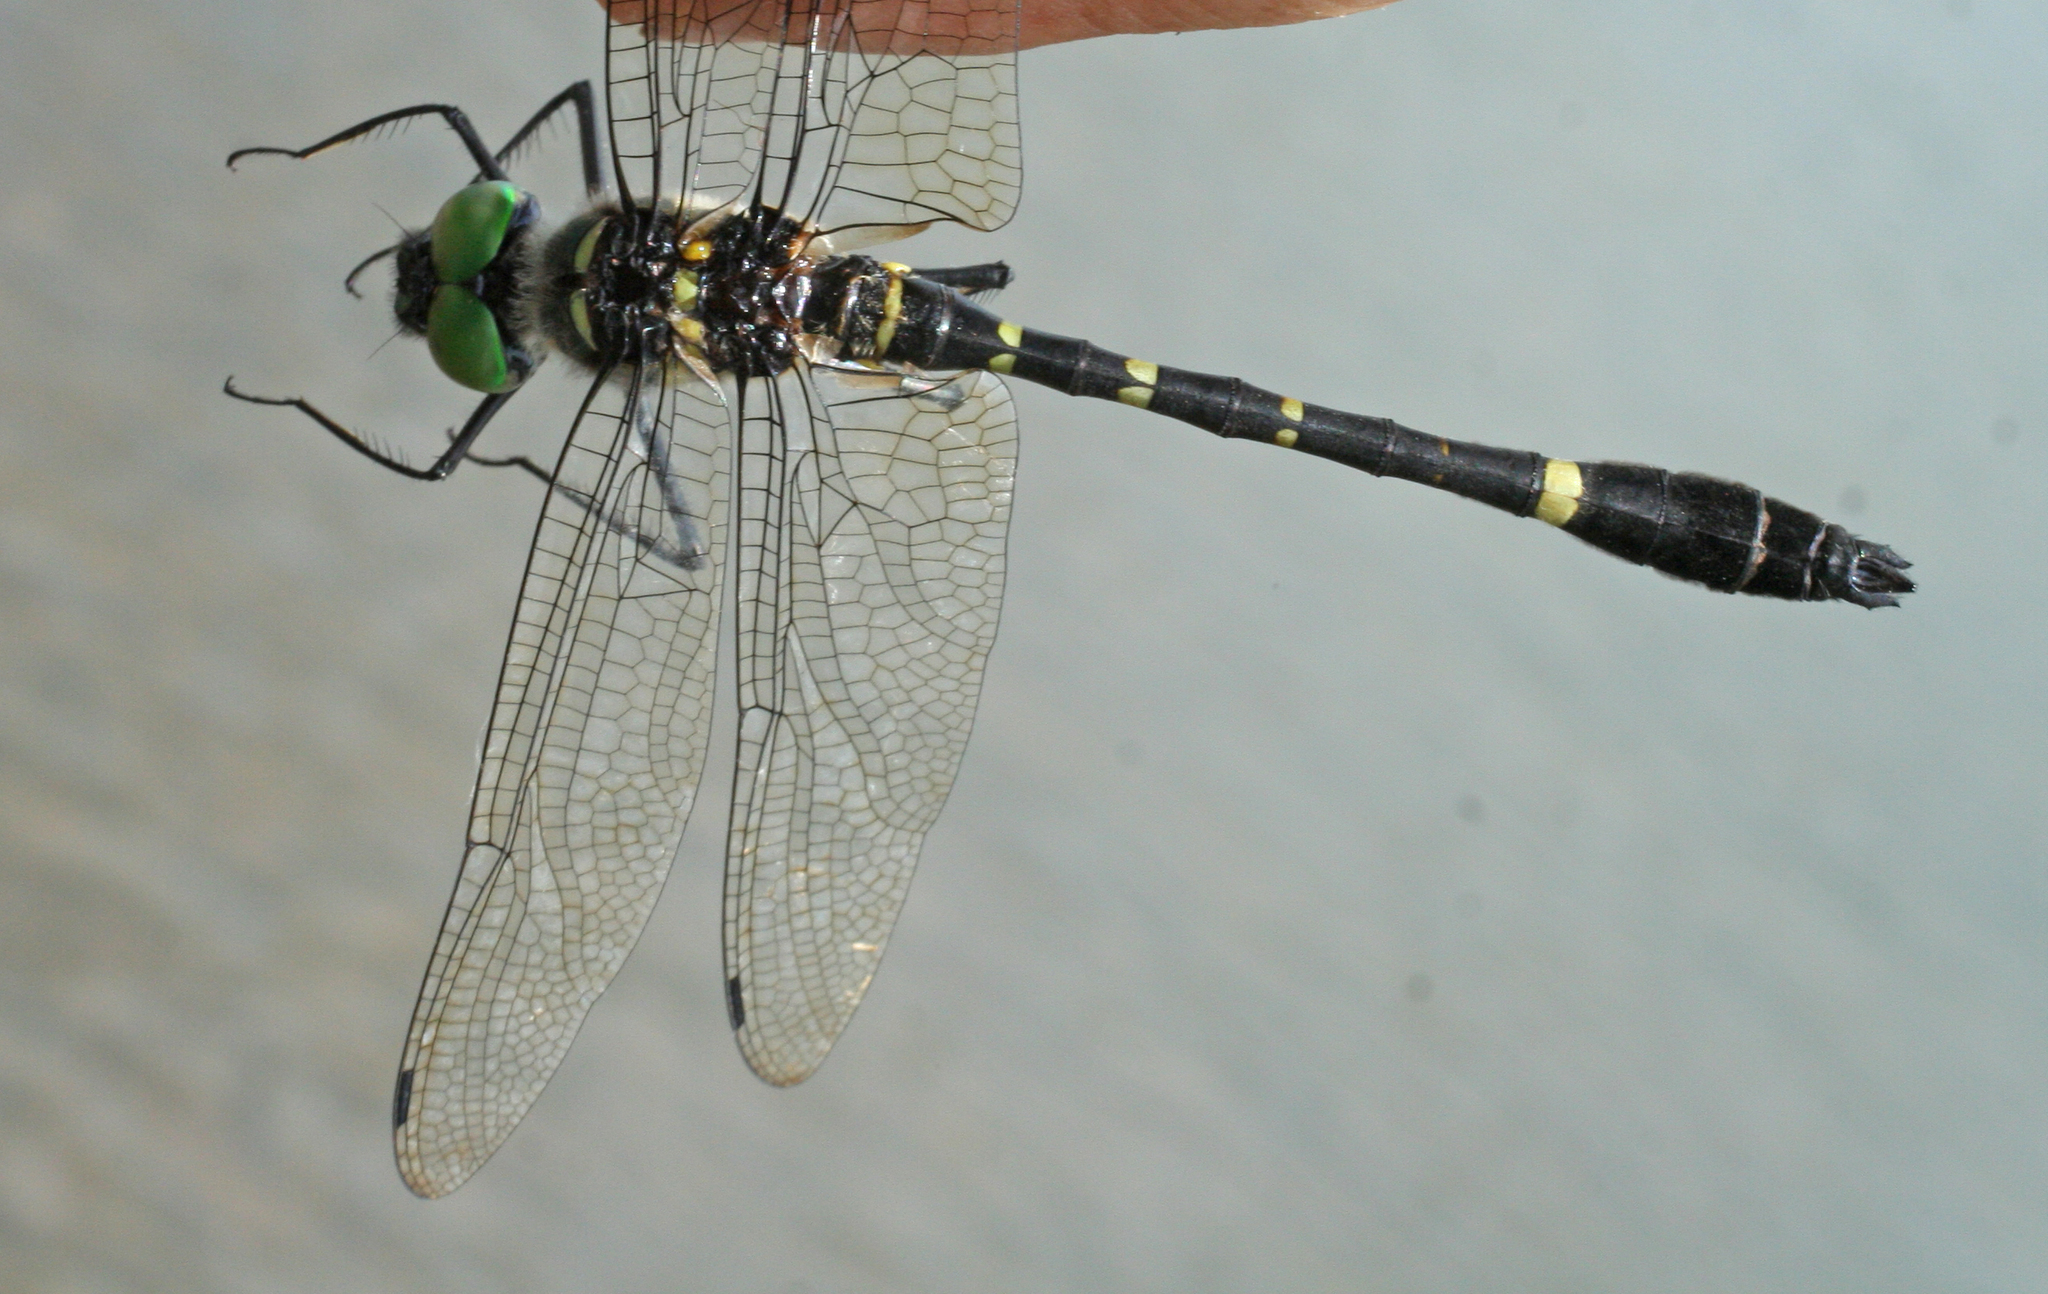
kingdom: Animalia
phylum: Arthropoda
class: Insecta
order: Odonata
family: Macromiidae
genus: Macromia
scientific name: Macromia manchurica
